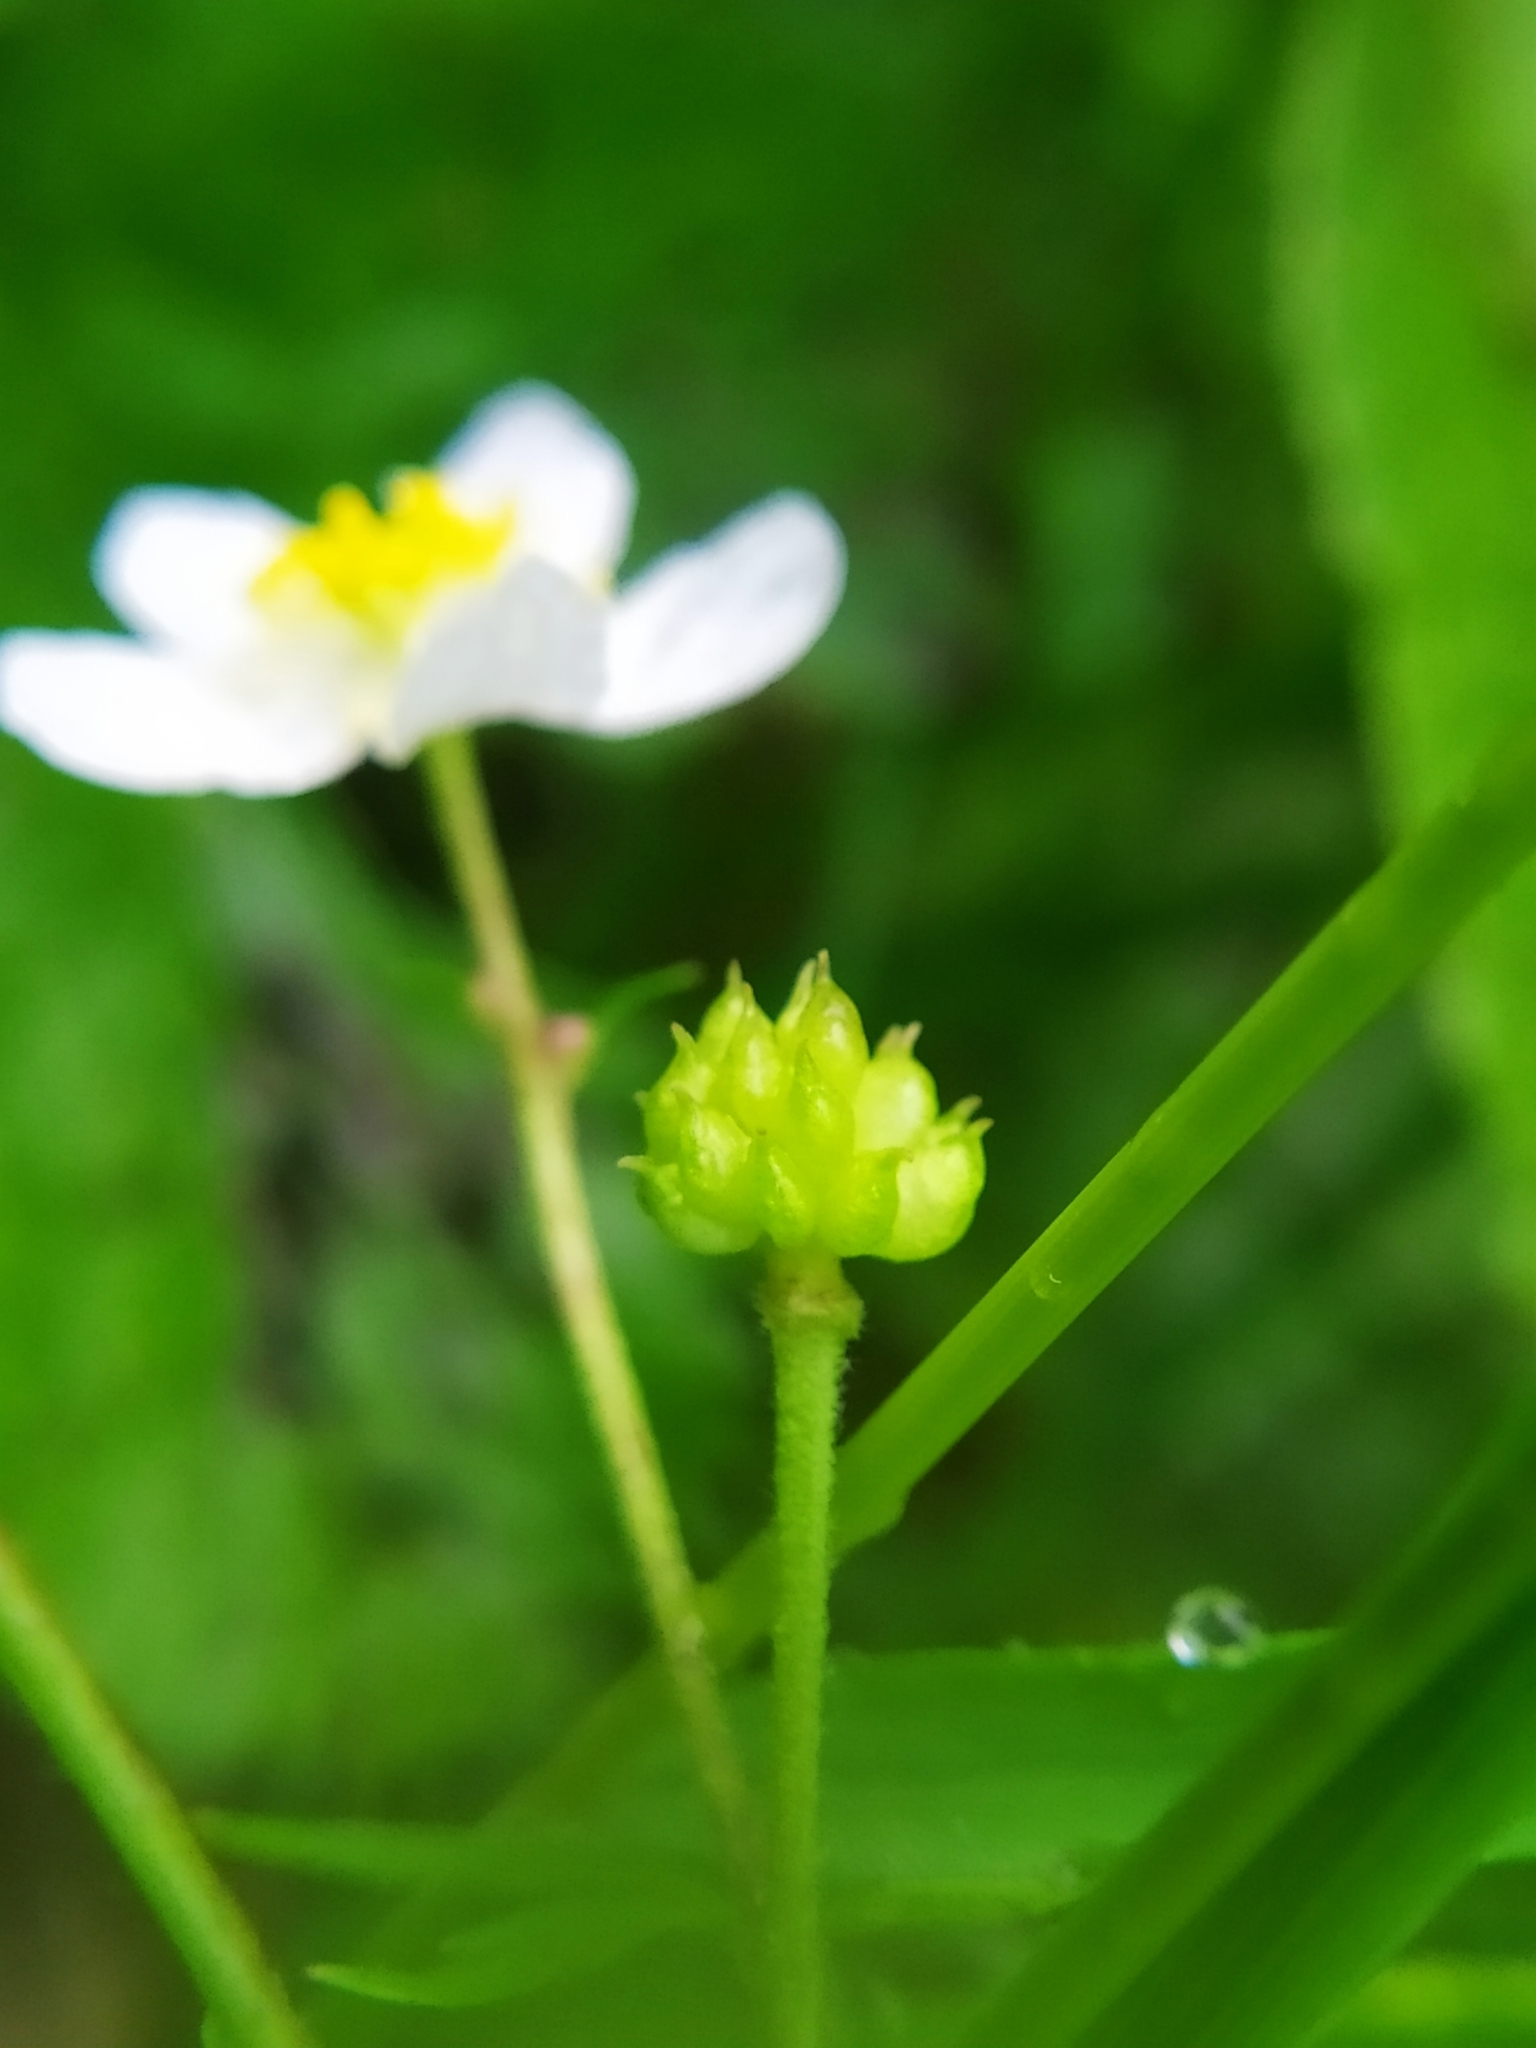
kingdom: Plantae
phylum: Tracheophyta
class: Magnoliopsida
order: Ranunculales
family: Ranunculaceae
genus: Ranunculus
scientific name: Ranunculus aconitifolius
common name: Aconite-leaved buttercup
